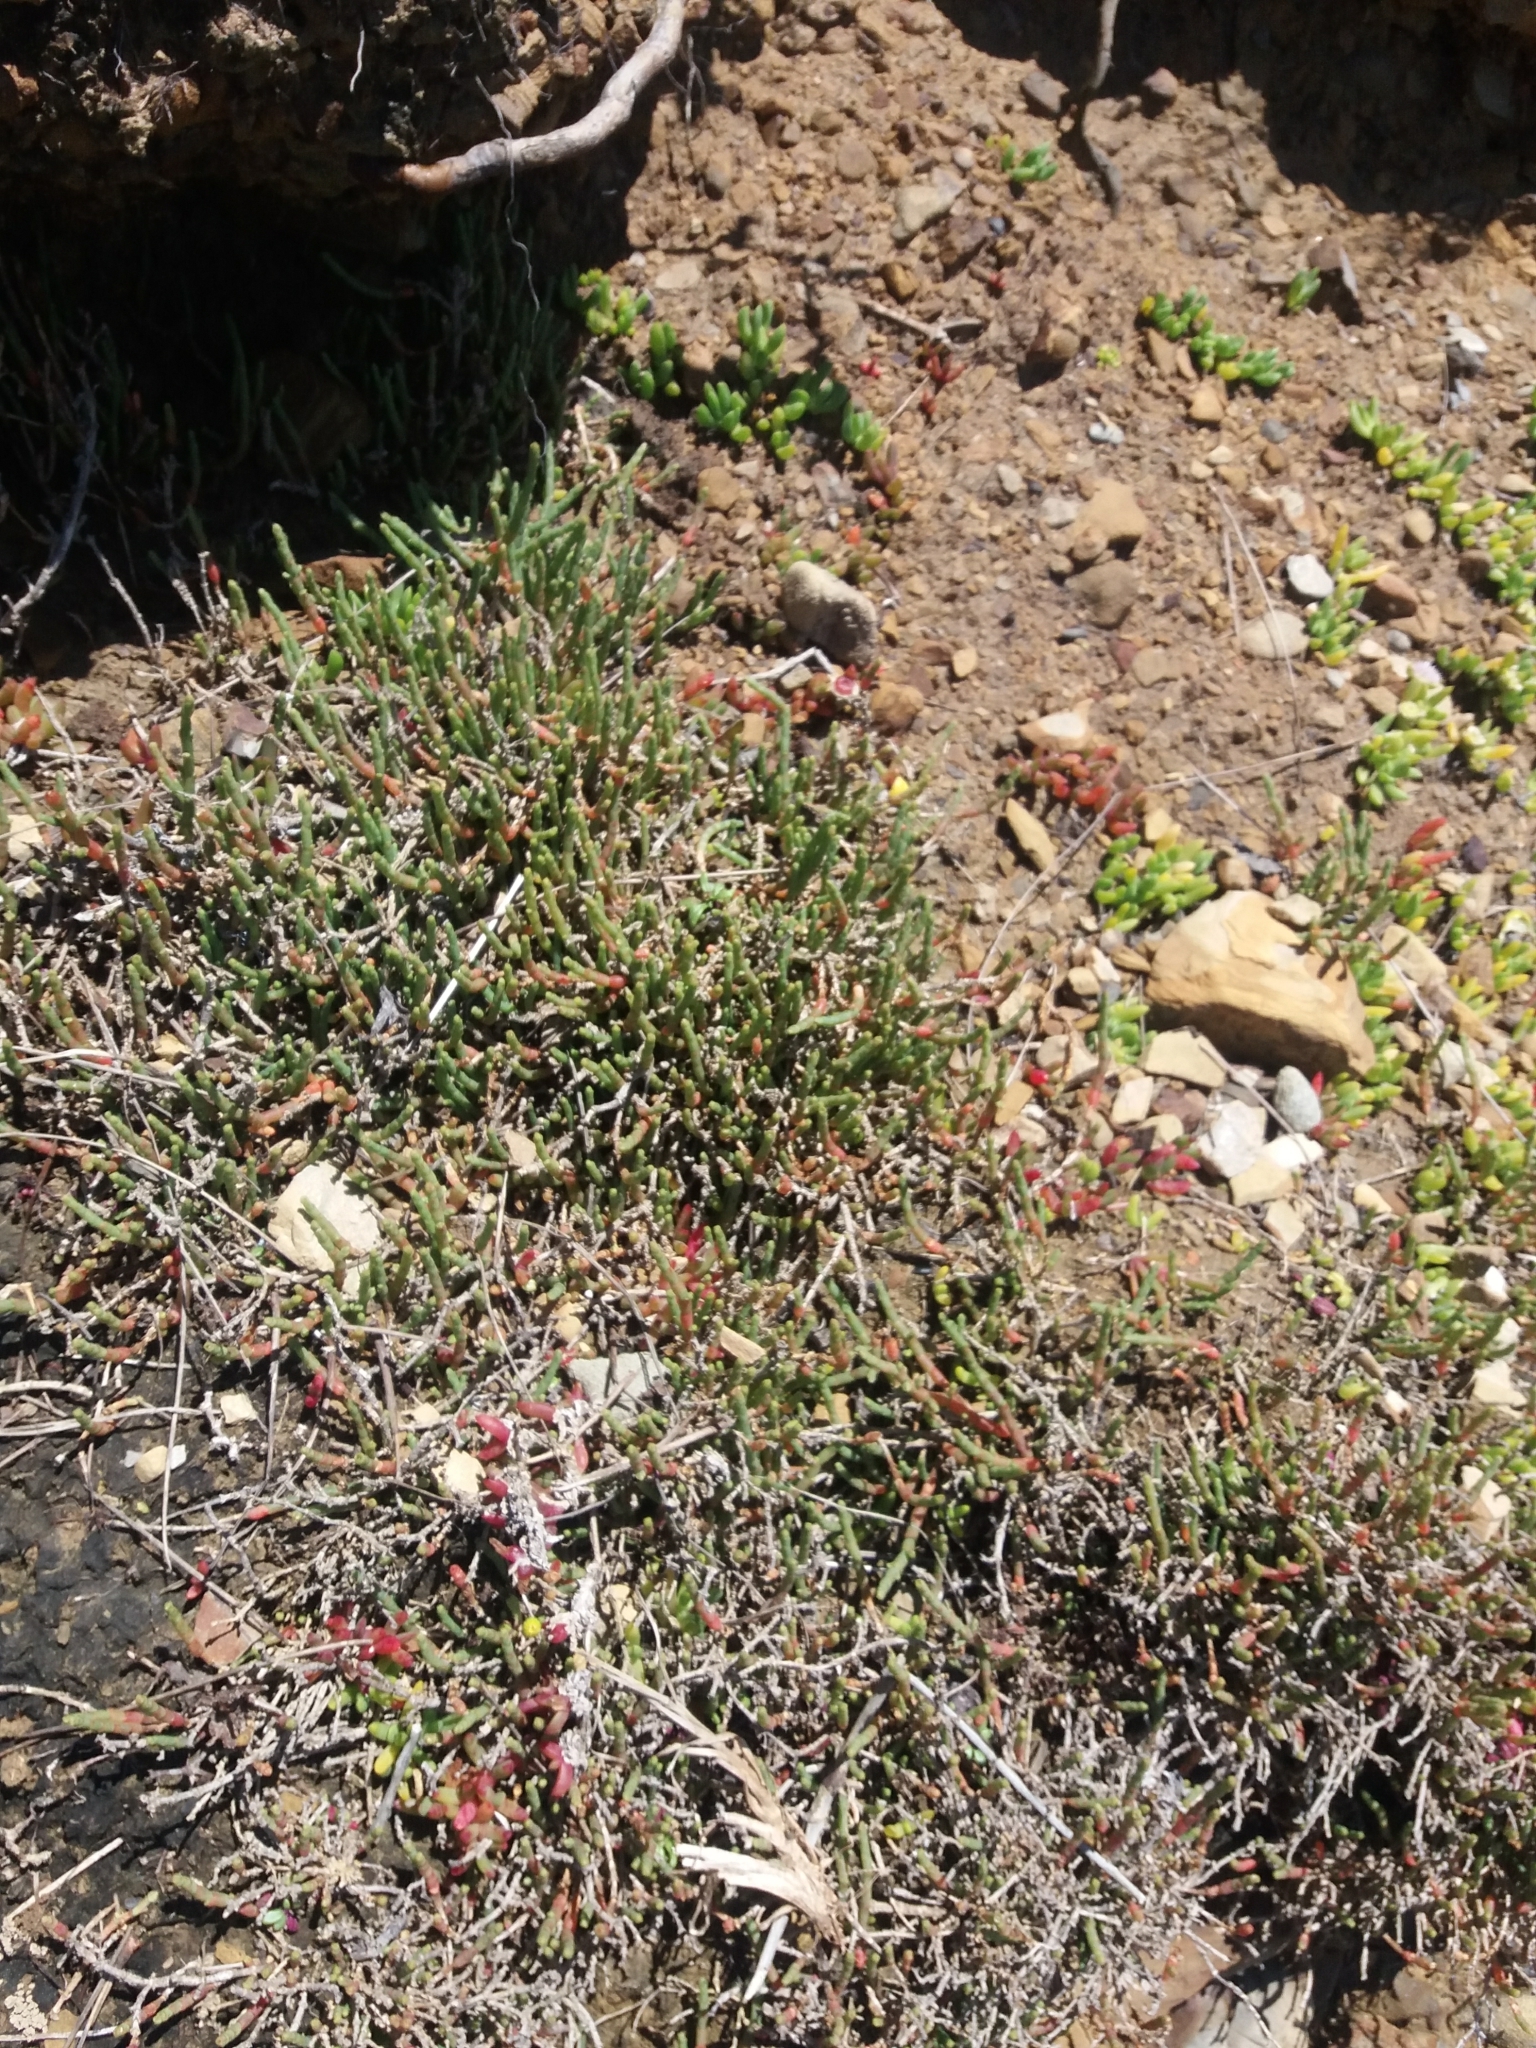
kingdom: Plantae
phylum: Tracheophyta
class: Magnoliopsida
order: Caryophyllales
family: Amaranthaceae
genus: Salicornia
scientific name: Salicornia quinqueflora
